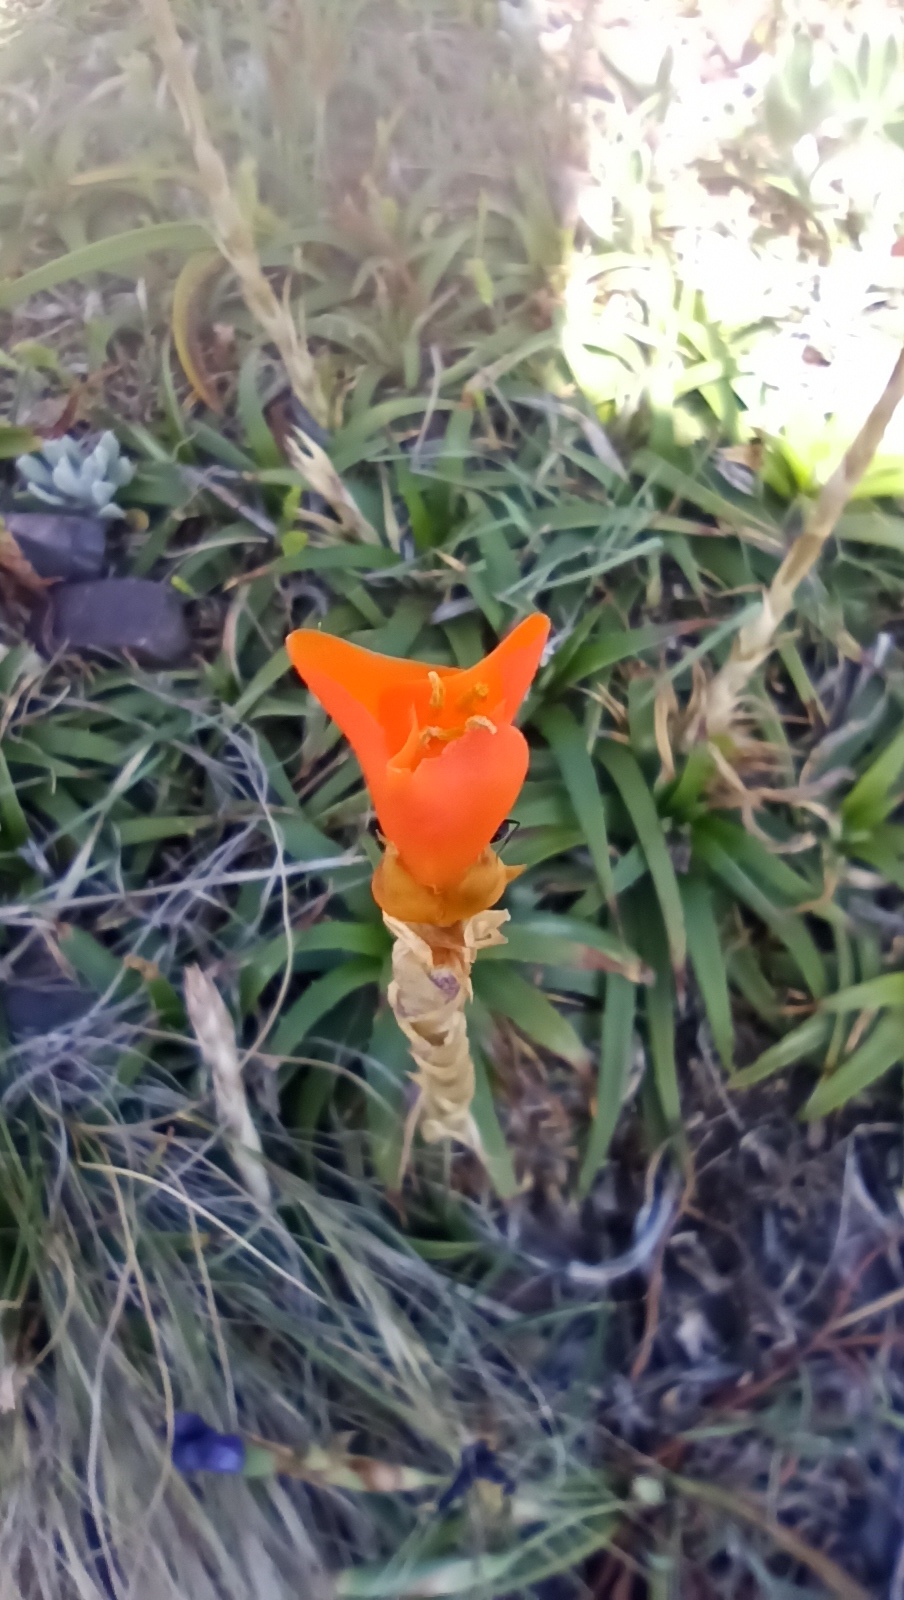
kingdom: Plantae
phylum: Tracheophyta
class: Liliopsida
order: Poales
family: Bromeliaceae
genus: Dyckia
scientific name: Dyckia remotiflora
